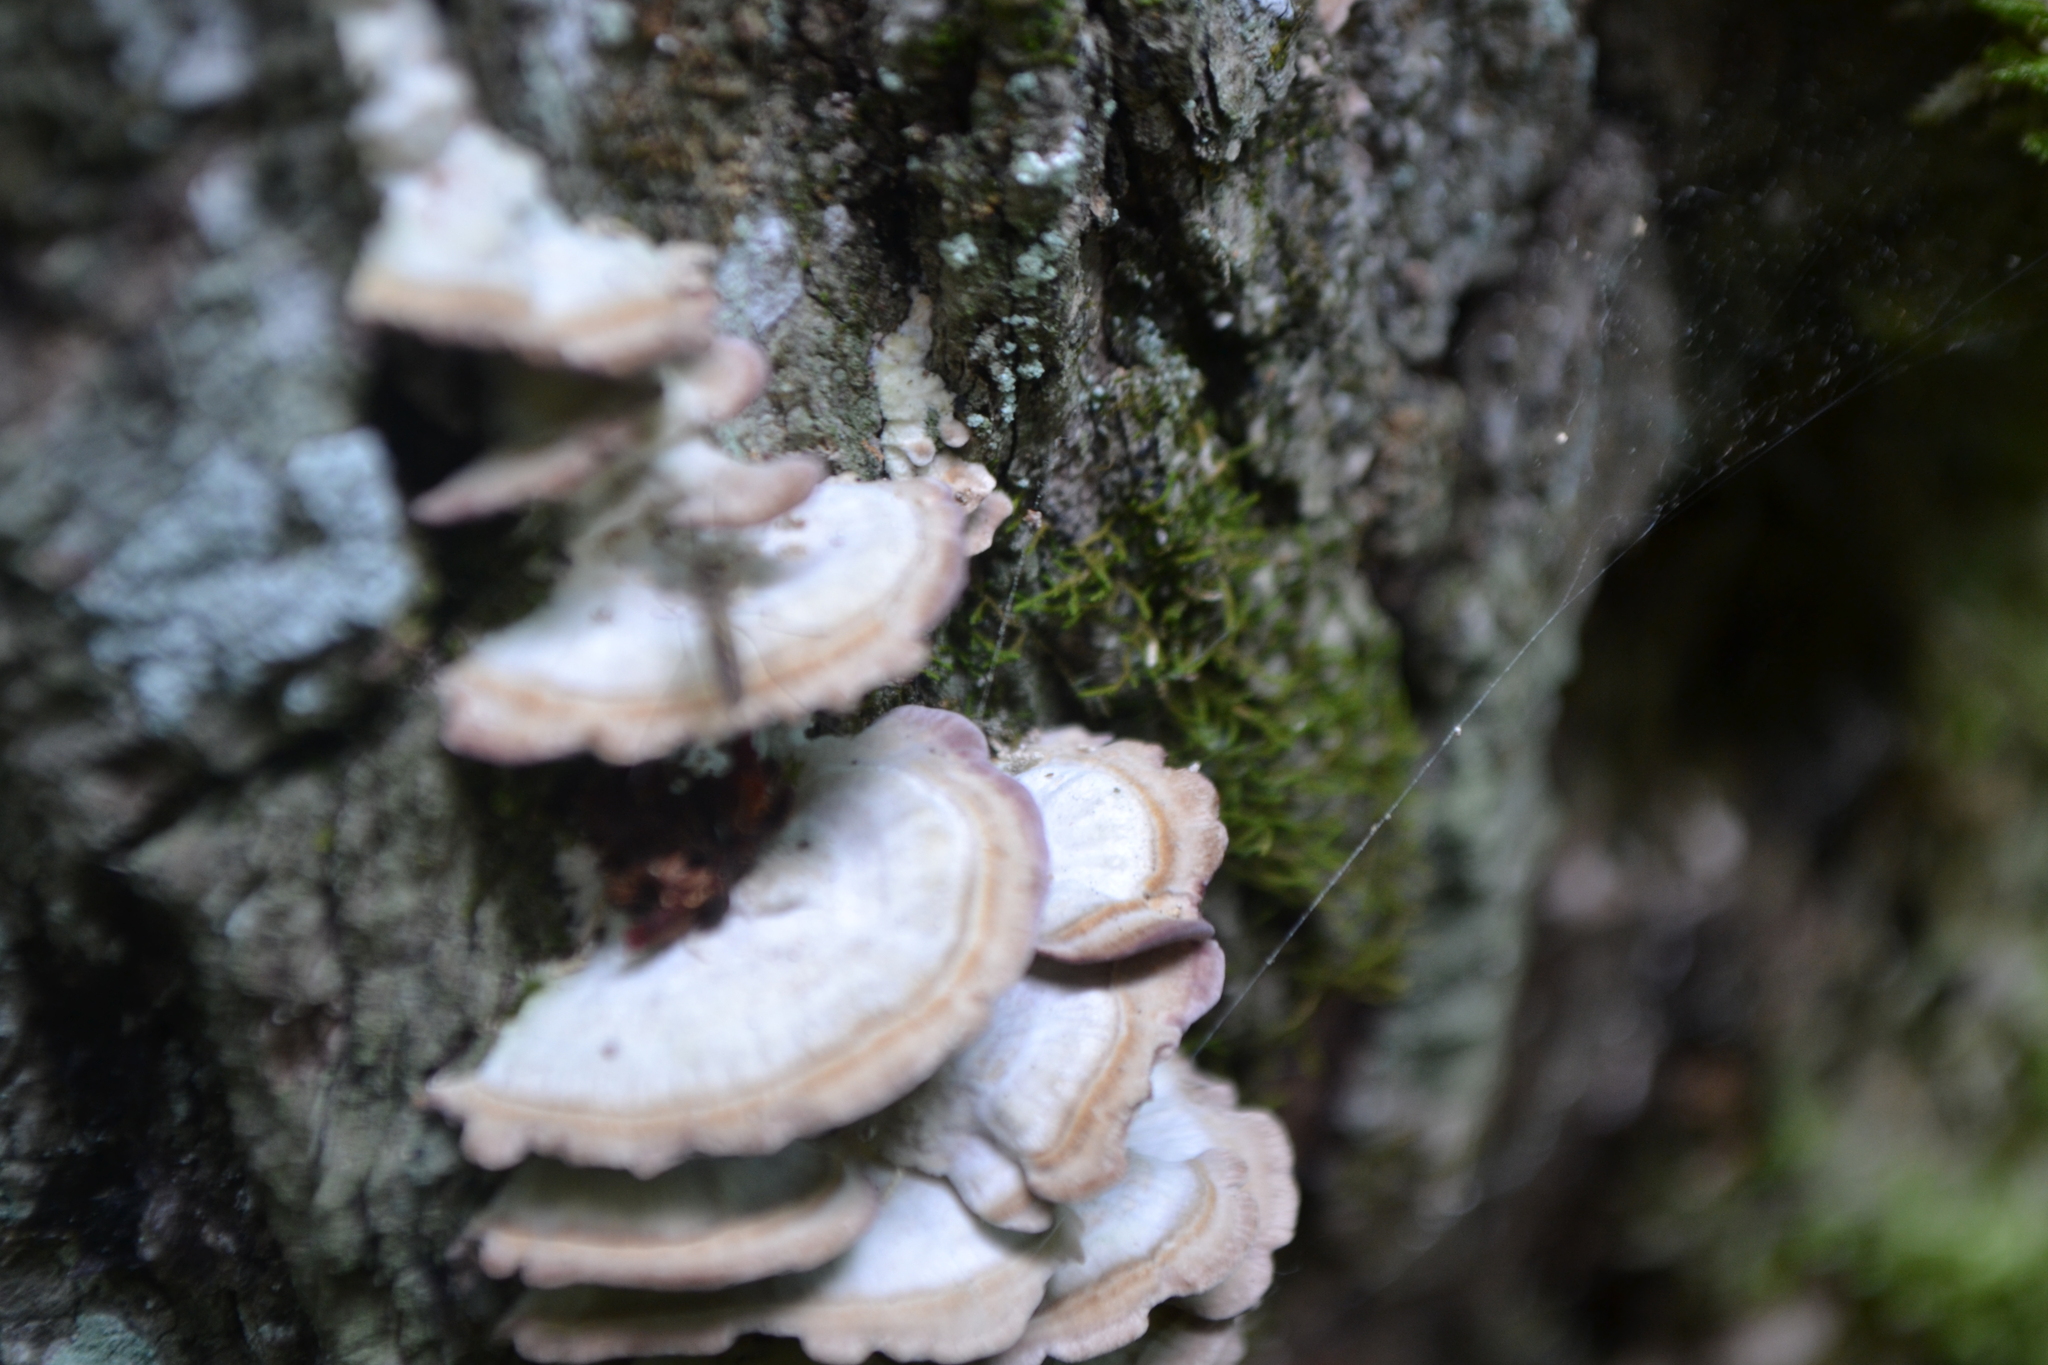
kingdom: Fungi
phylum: Basidiomycota
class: Agaricomycetes
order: Hymenochaetales
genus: Trichaptum
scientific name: Trichaptum biforme
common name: Violet-toothed polypore
